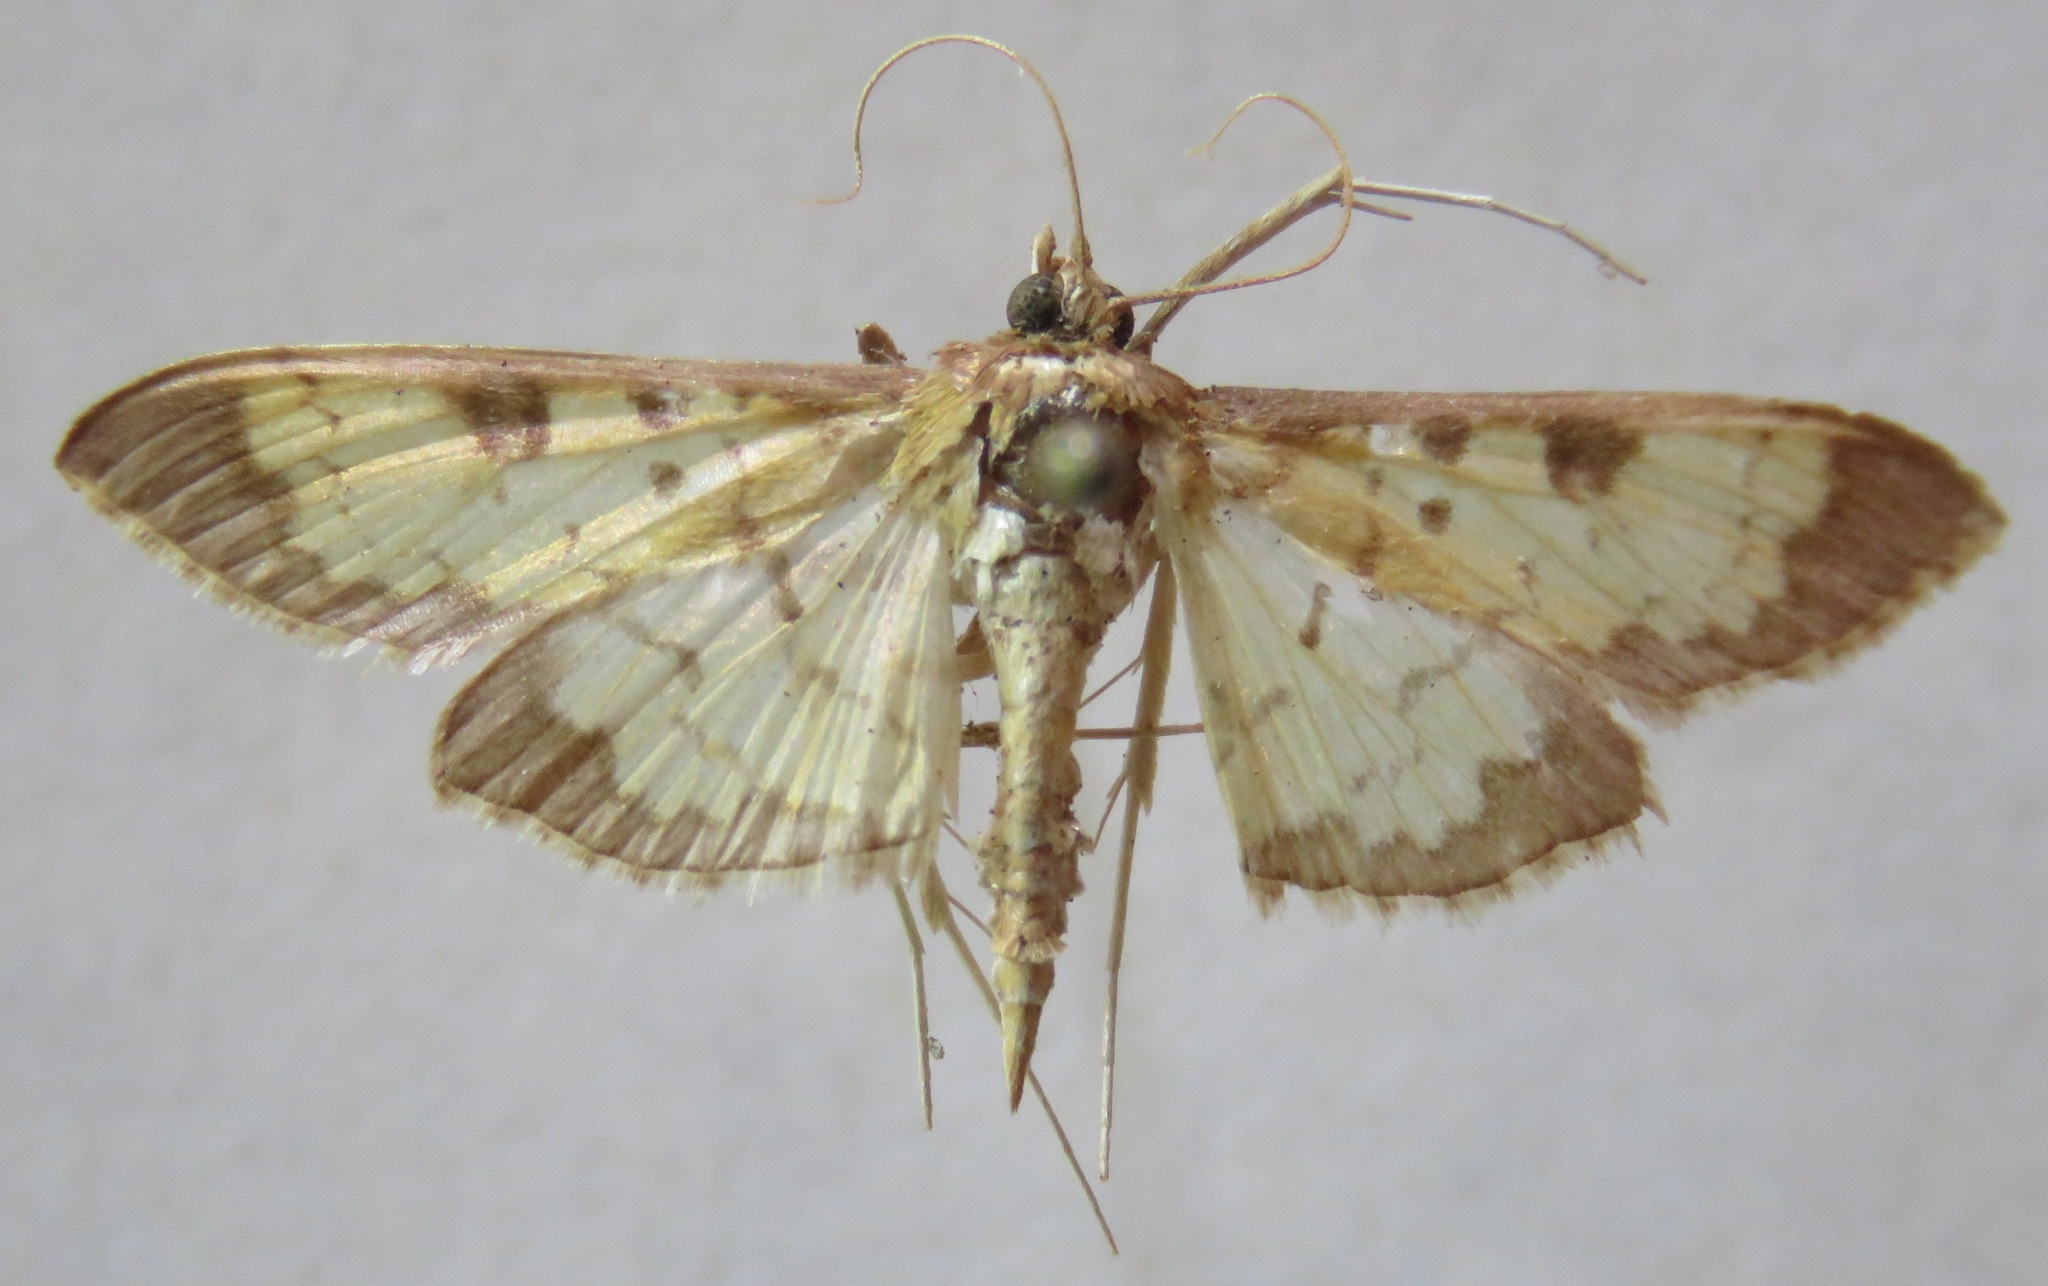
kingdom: Animalia
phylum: Arthropoda
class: Insecta
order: Lepidoptera
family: Crambidae
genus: Diacme
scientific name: Diacme mopsalis
